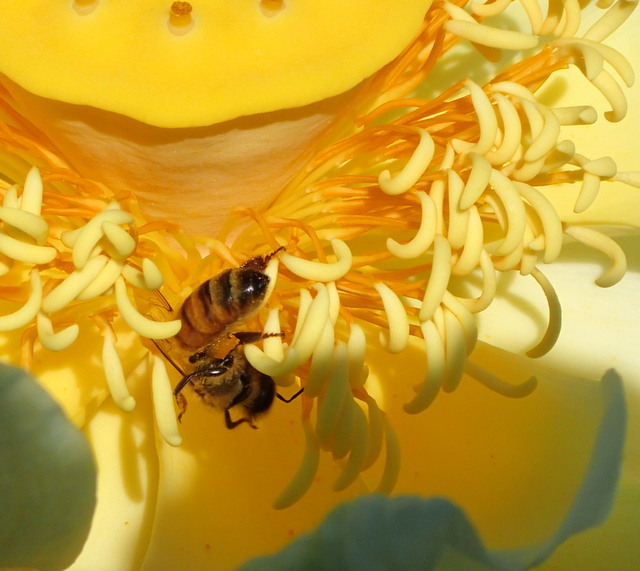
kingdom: Animalia
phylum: Arthropoda
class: Insecta
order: Hymenoptera
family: Apidae
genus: Apis
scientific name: Apis mellifera
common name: Honey bee
